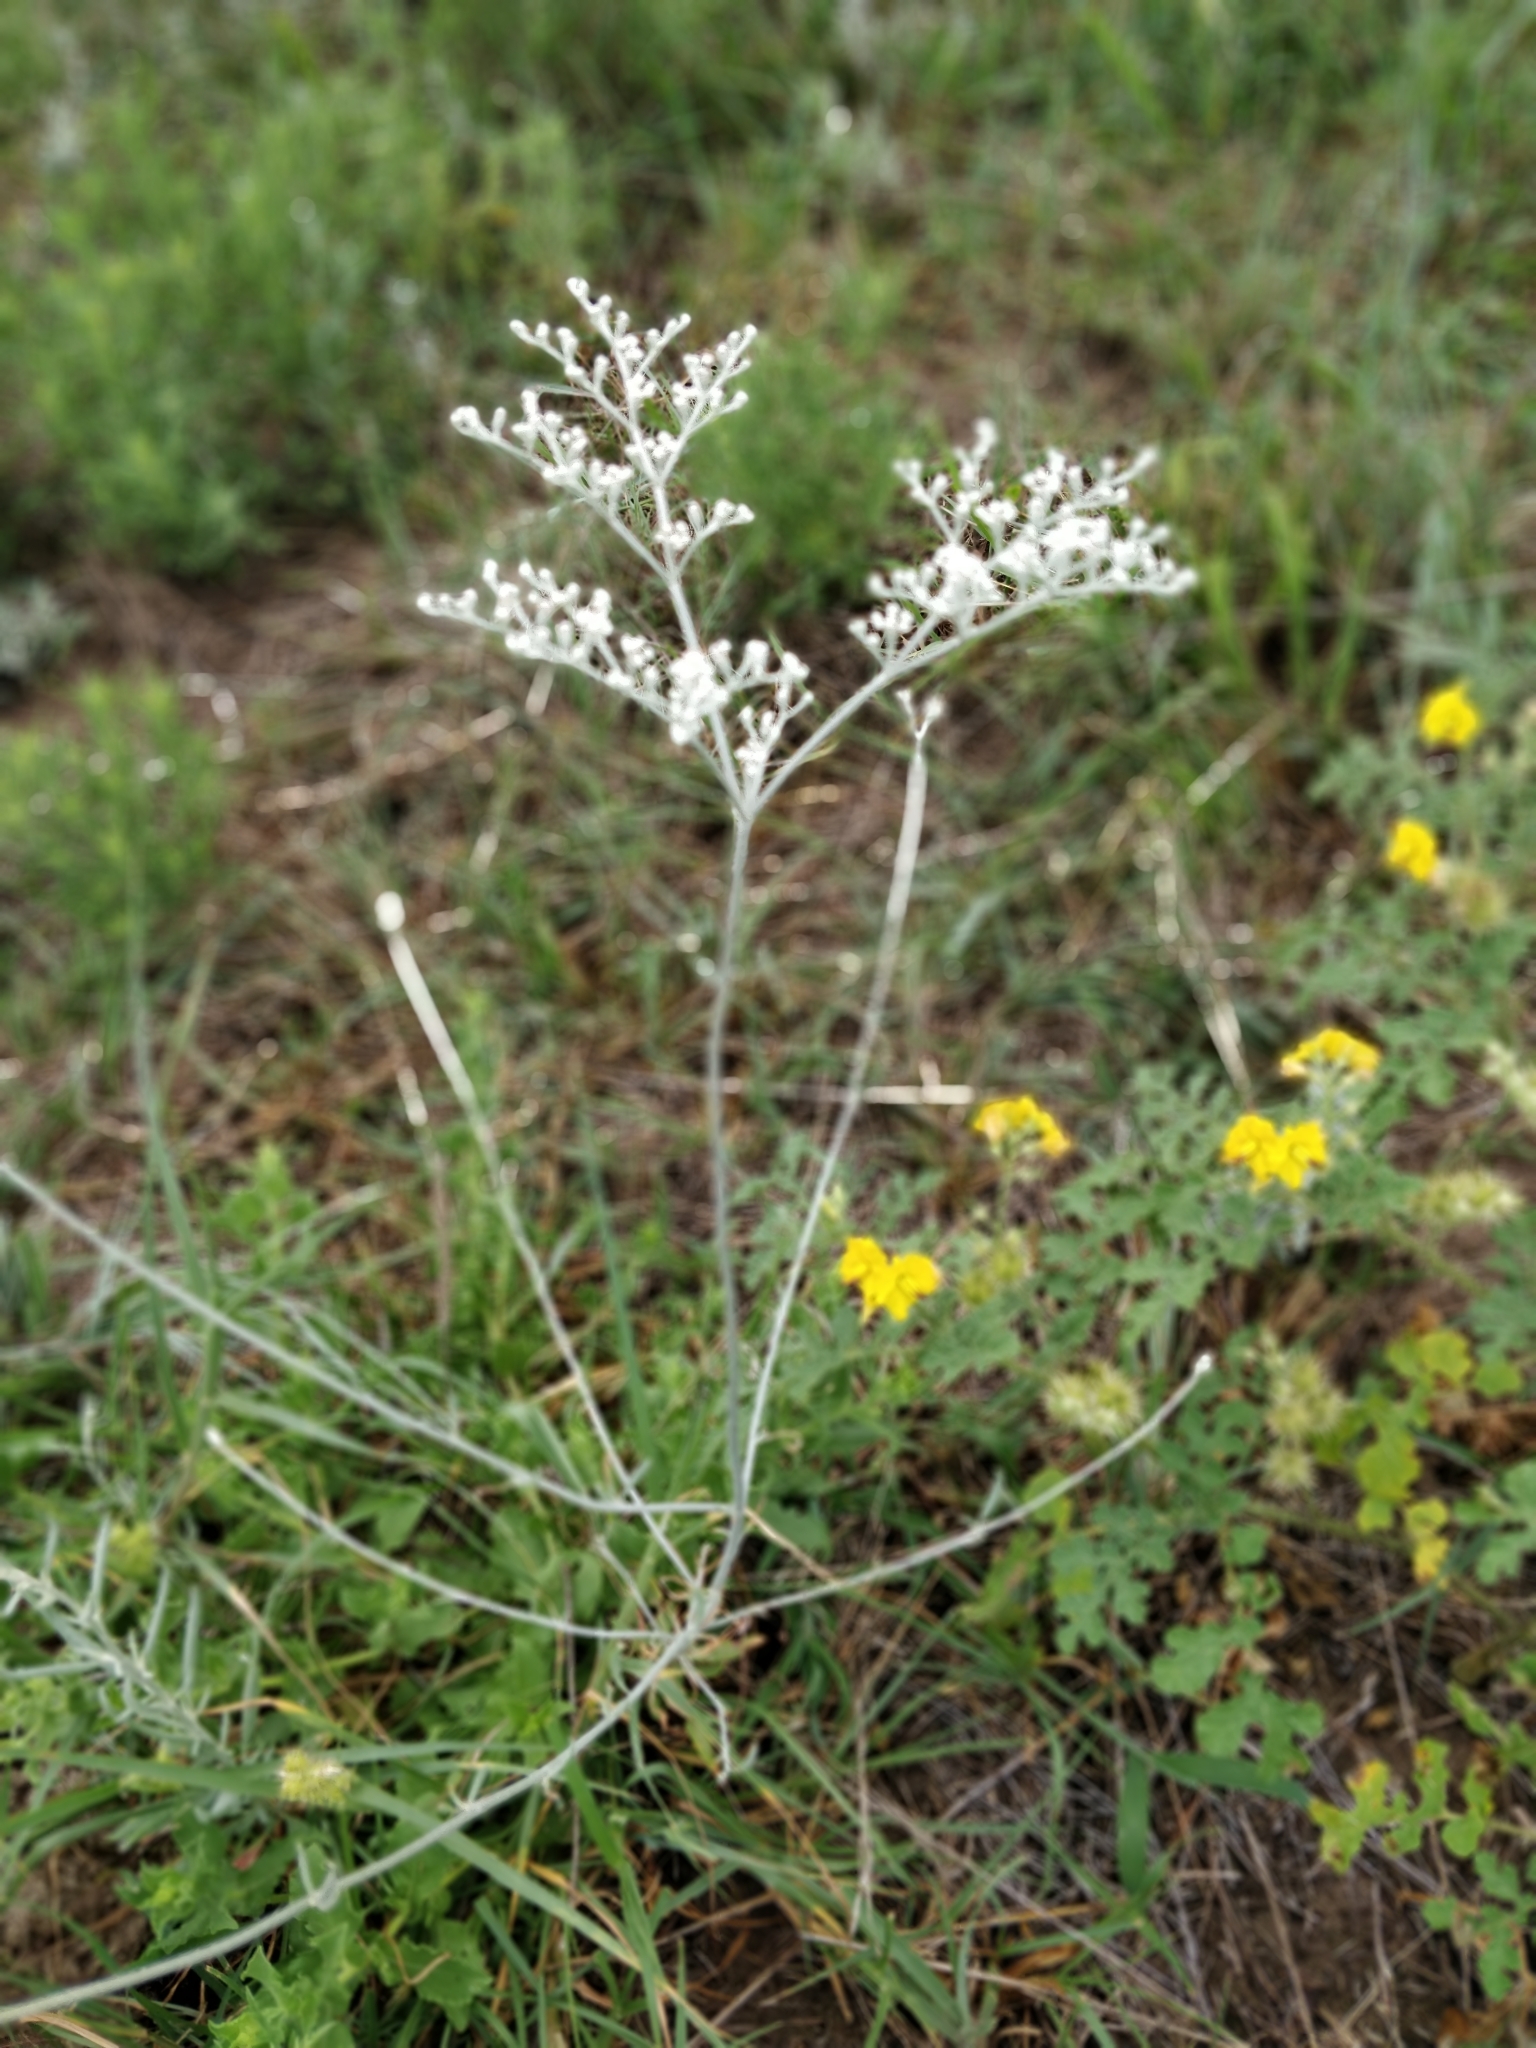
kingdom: Plantae
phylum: Tracheophyta
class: Magnoliopsida
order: Caryophyllales
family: Polygonaceae
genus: Eriogonum
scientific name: Eriogonum annuum
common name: Annual wild buckwheat
